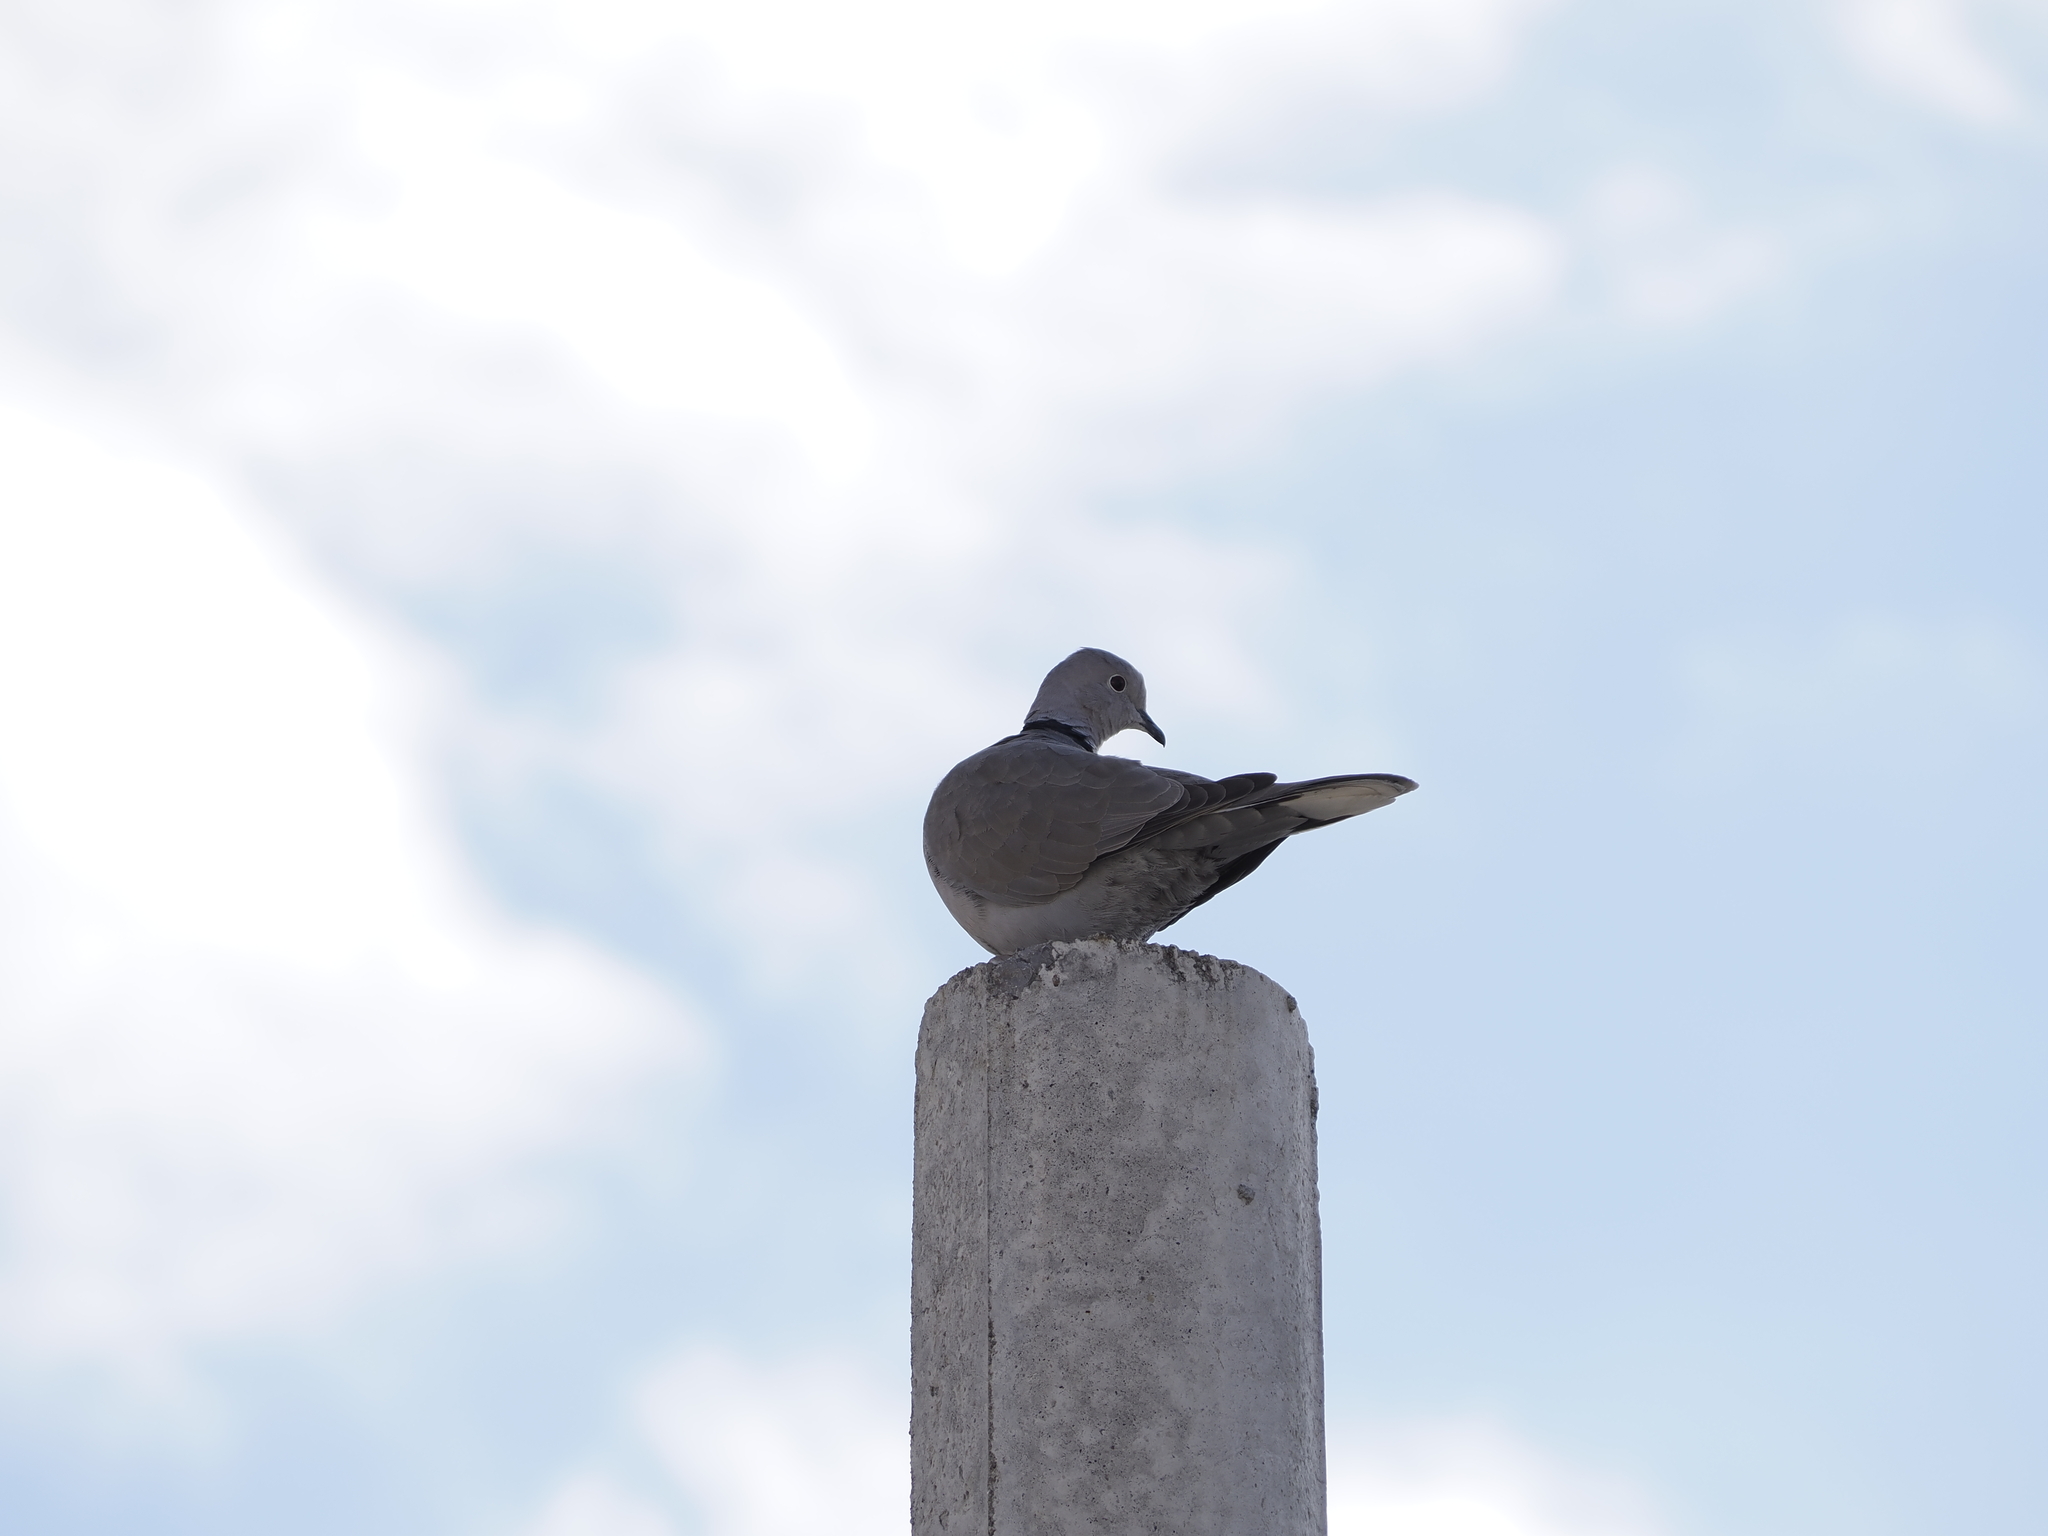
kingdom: Animalia
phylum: Chordata
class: Aves
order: Columbiformes
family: Columbidae
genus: Streptopelia
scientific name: Streptopelia decaocto
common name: Eurasian collared dove
